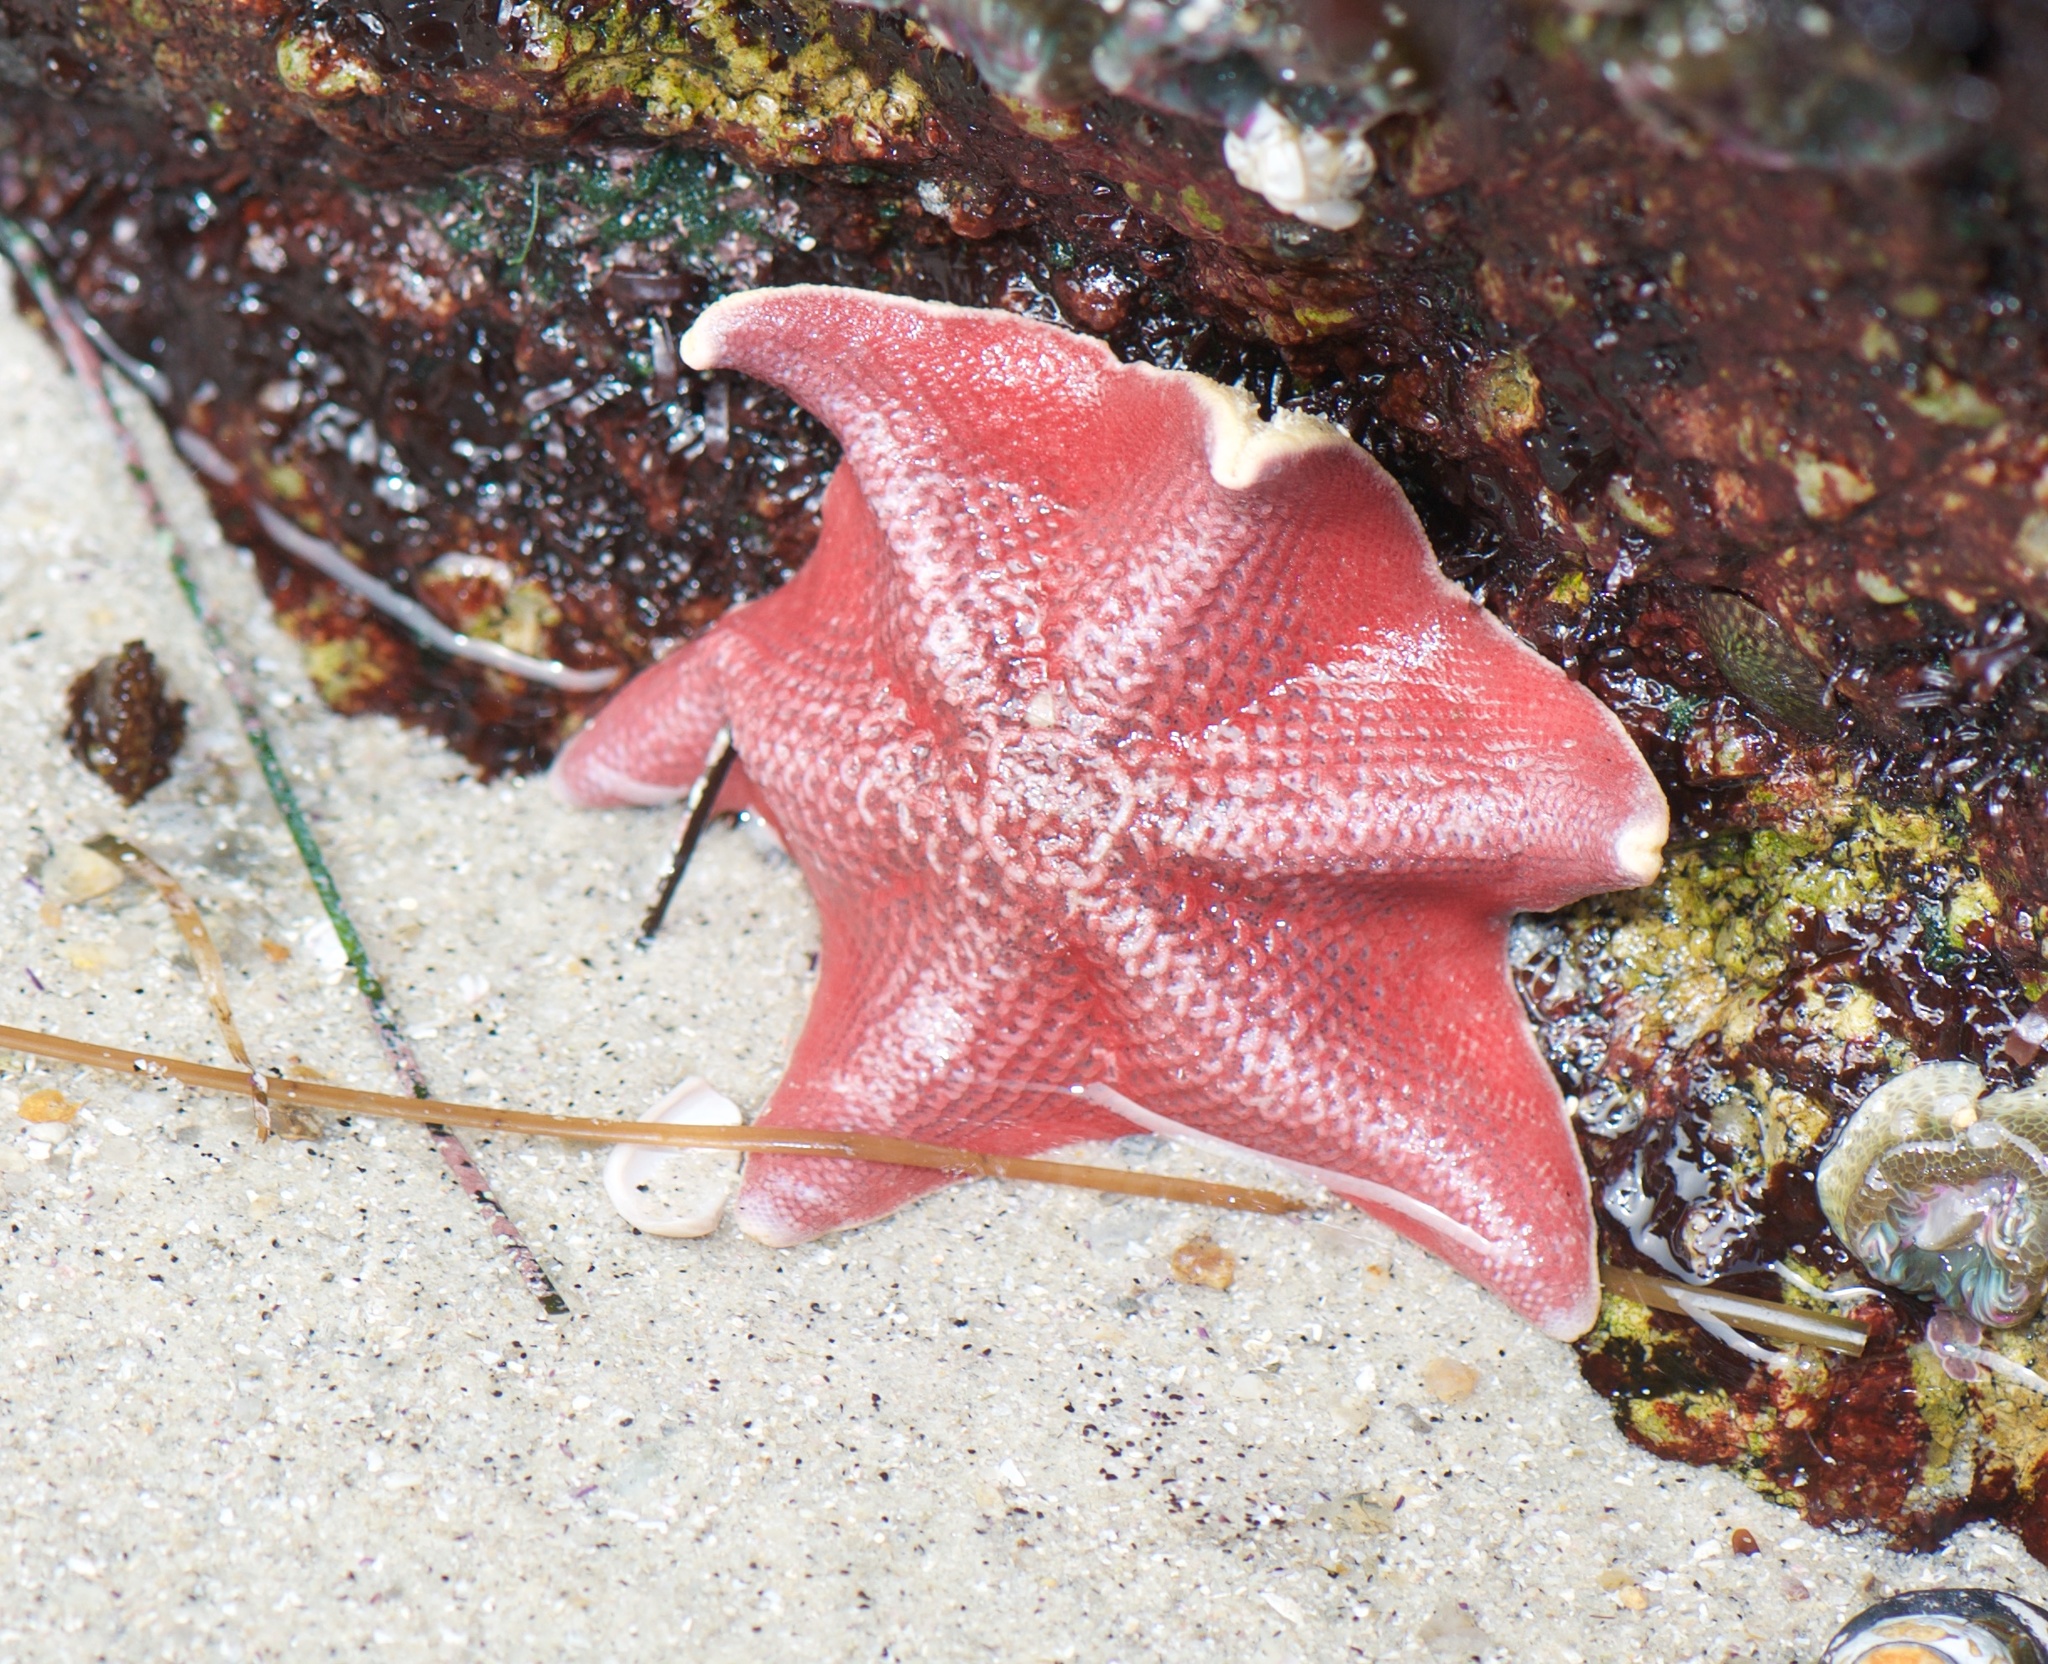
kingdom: Animalia
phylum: Echinodermata
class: Asteroidea
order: Valvatida
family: Asterinidae
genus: Patiria
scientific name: Patiria miniata
